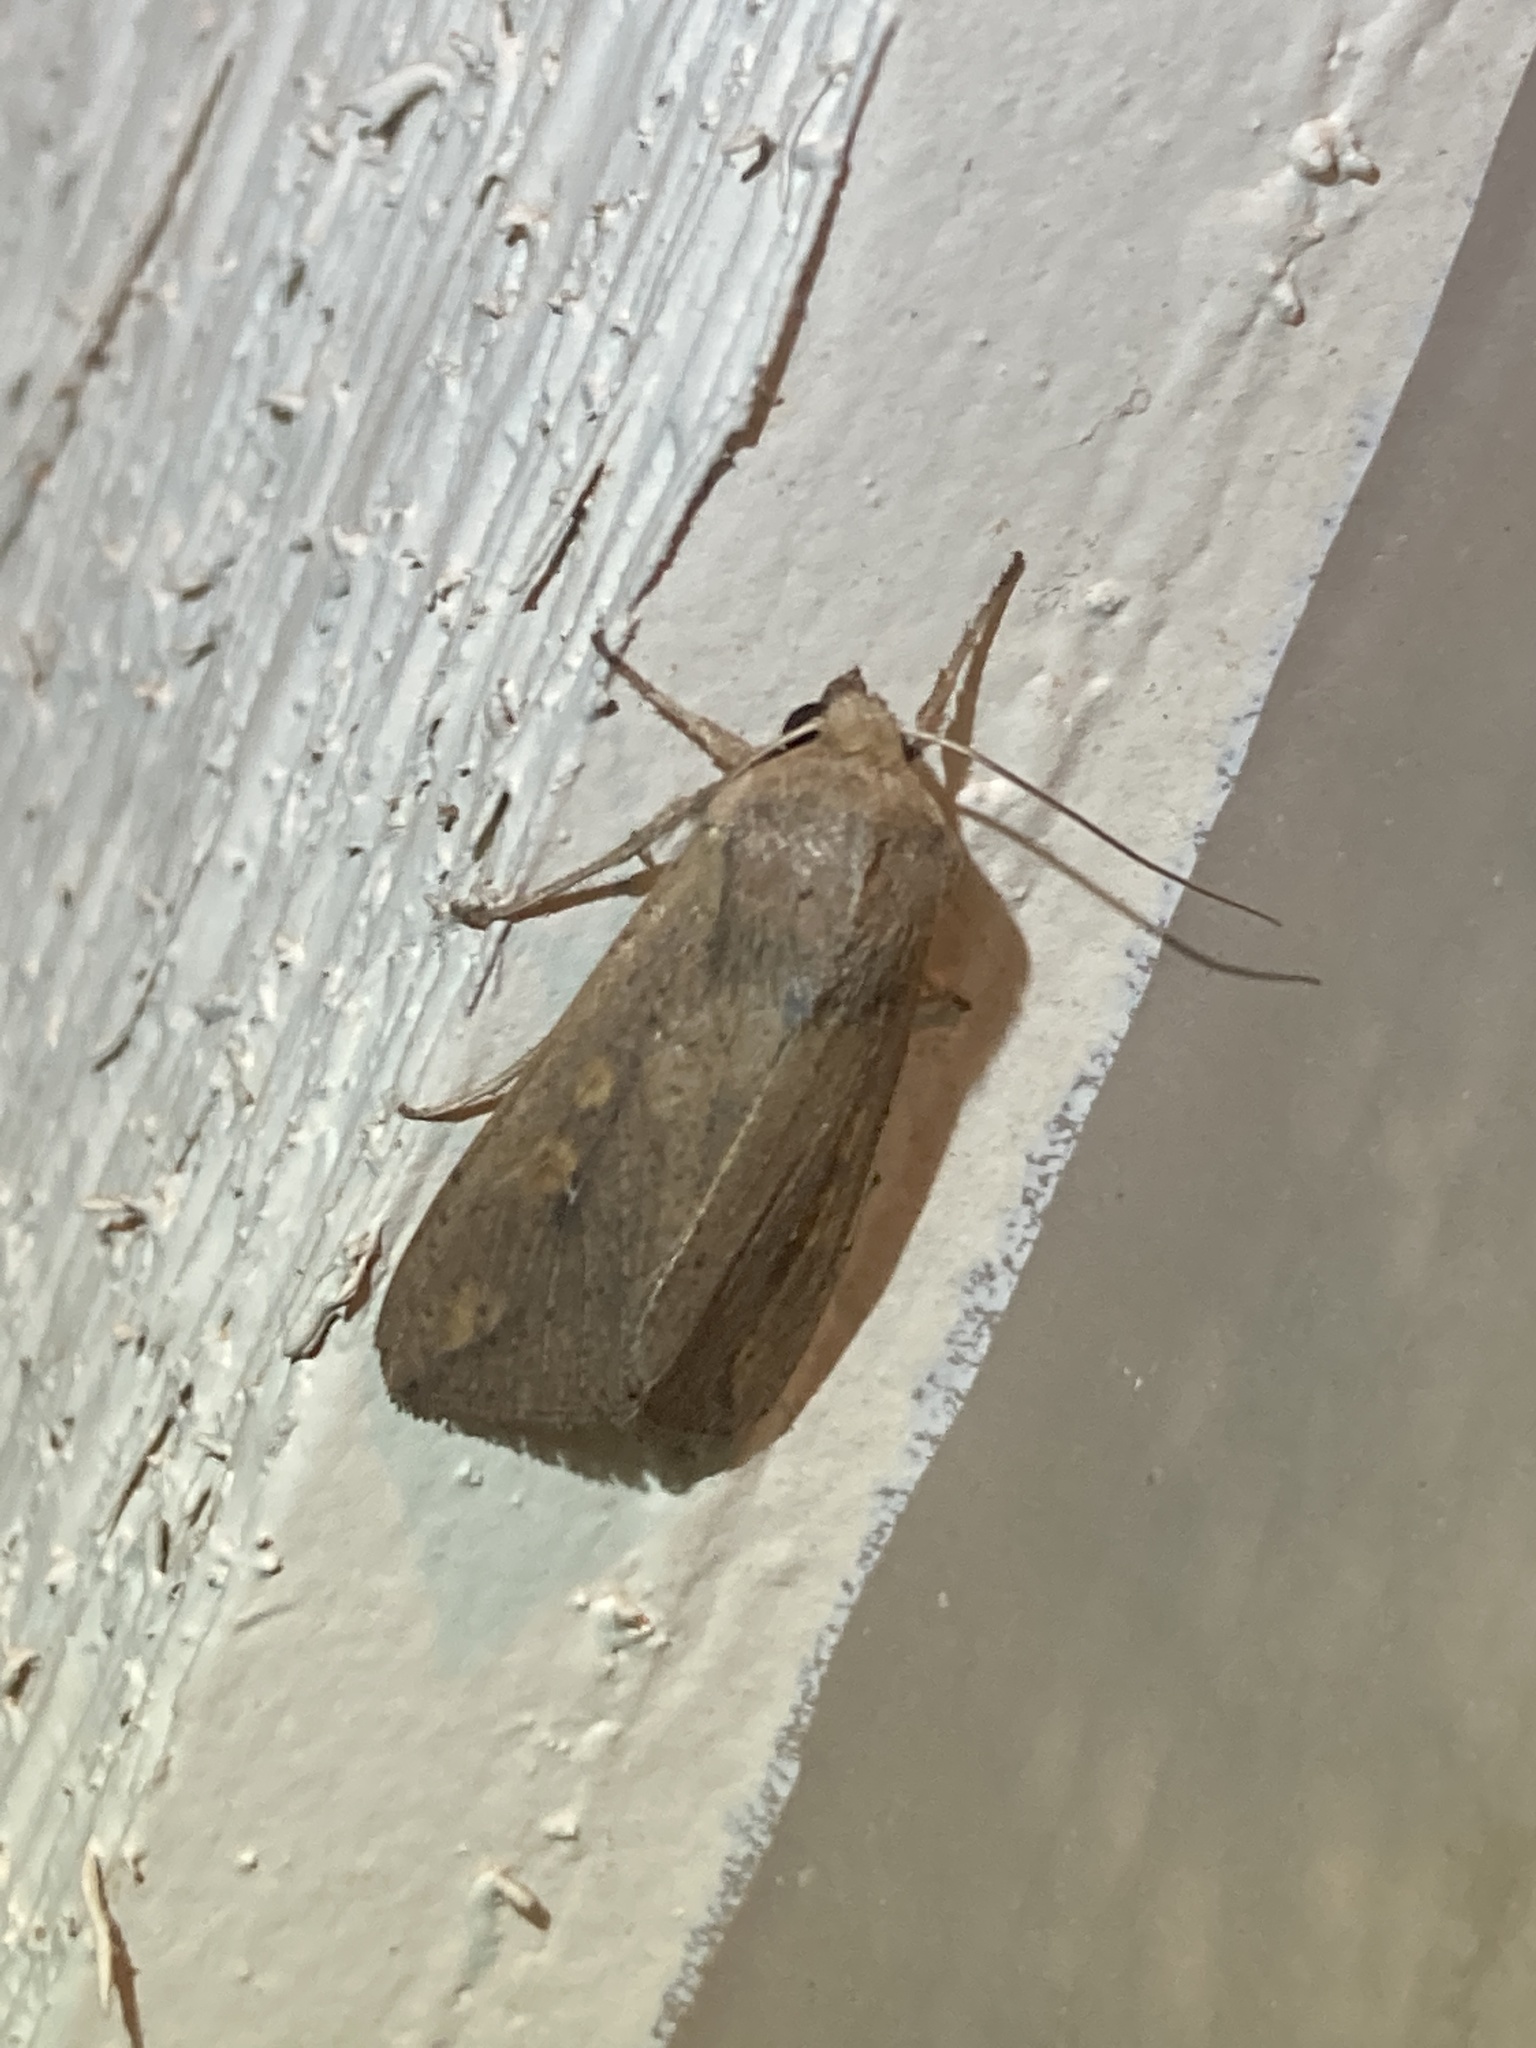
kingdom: Animalia
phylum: Arthropoda
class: Insecta
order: Lepidoptera
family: Noctuidae
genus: Mythimna
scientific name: Mythimna unipuncta
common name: White-speck
